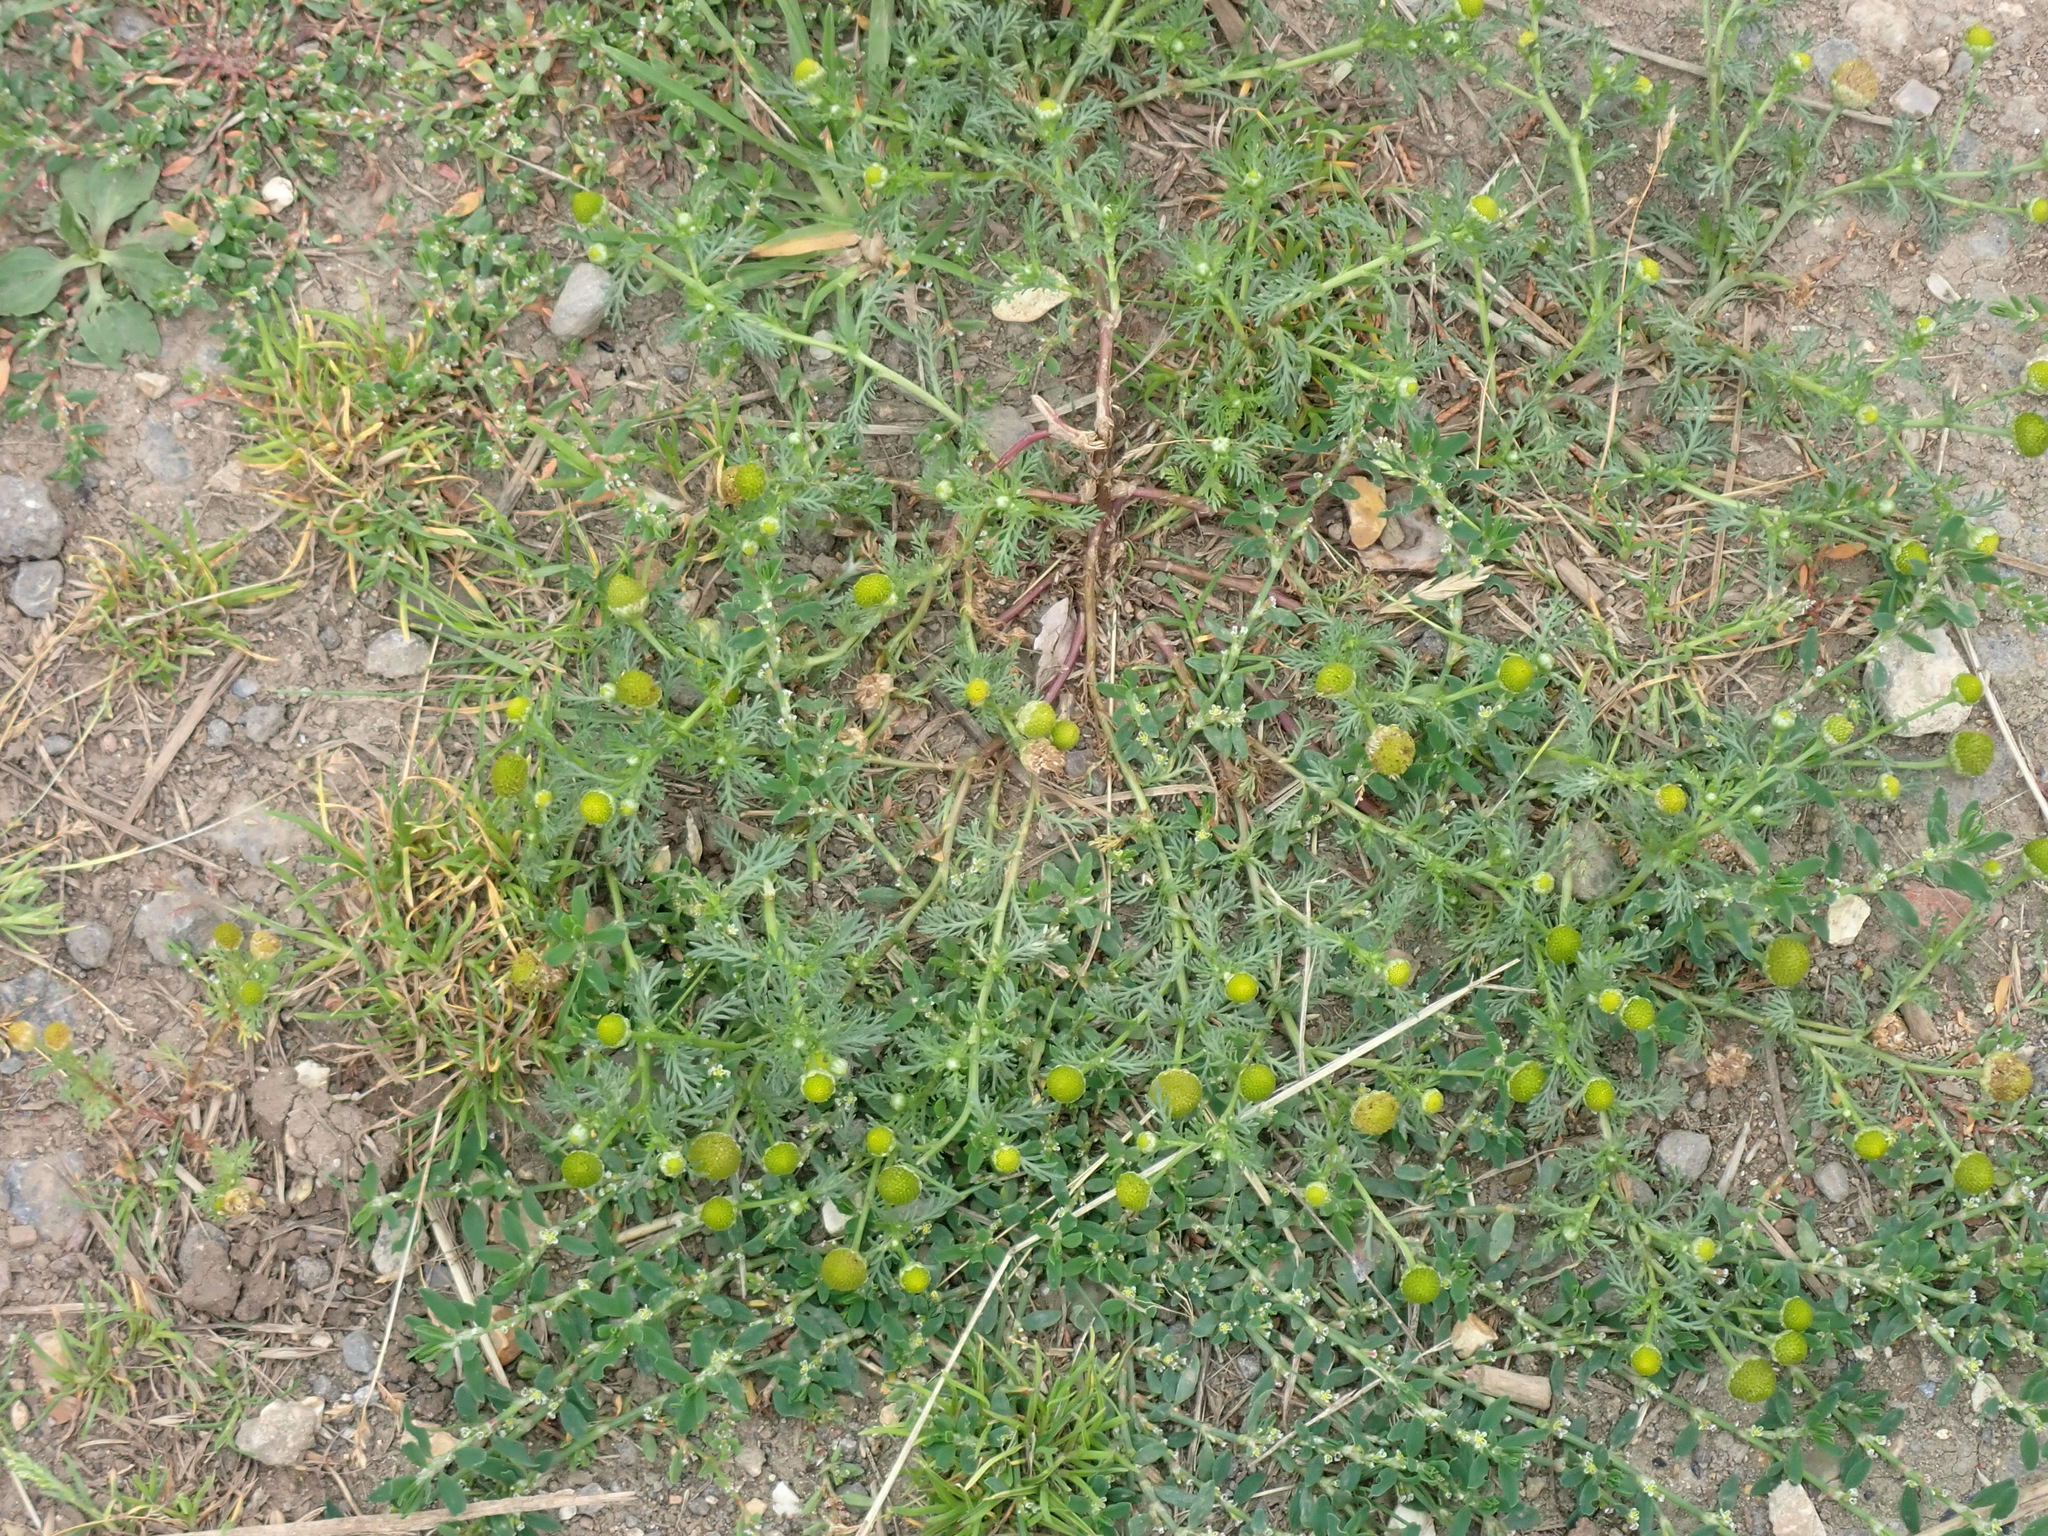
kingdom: Plantae
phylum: Tracheophyta
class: Magnoliopsida
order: Asterales
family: Asteraceae
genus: Matricaria
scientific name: Matricaria discoidea
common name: Disc mayweed
